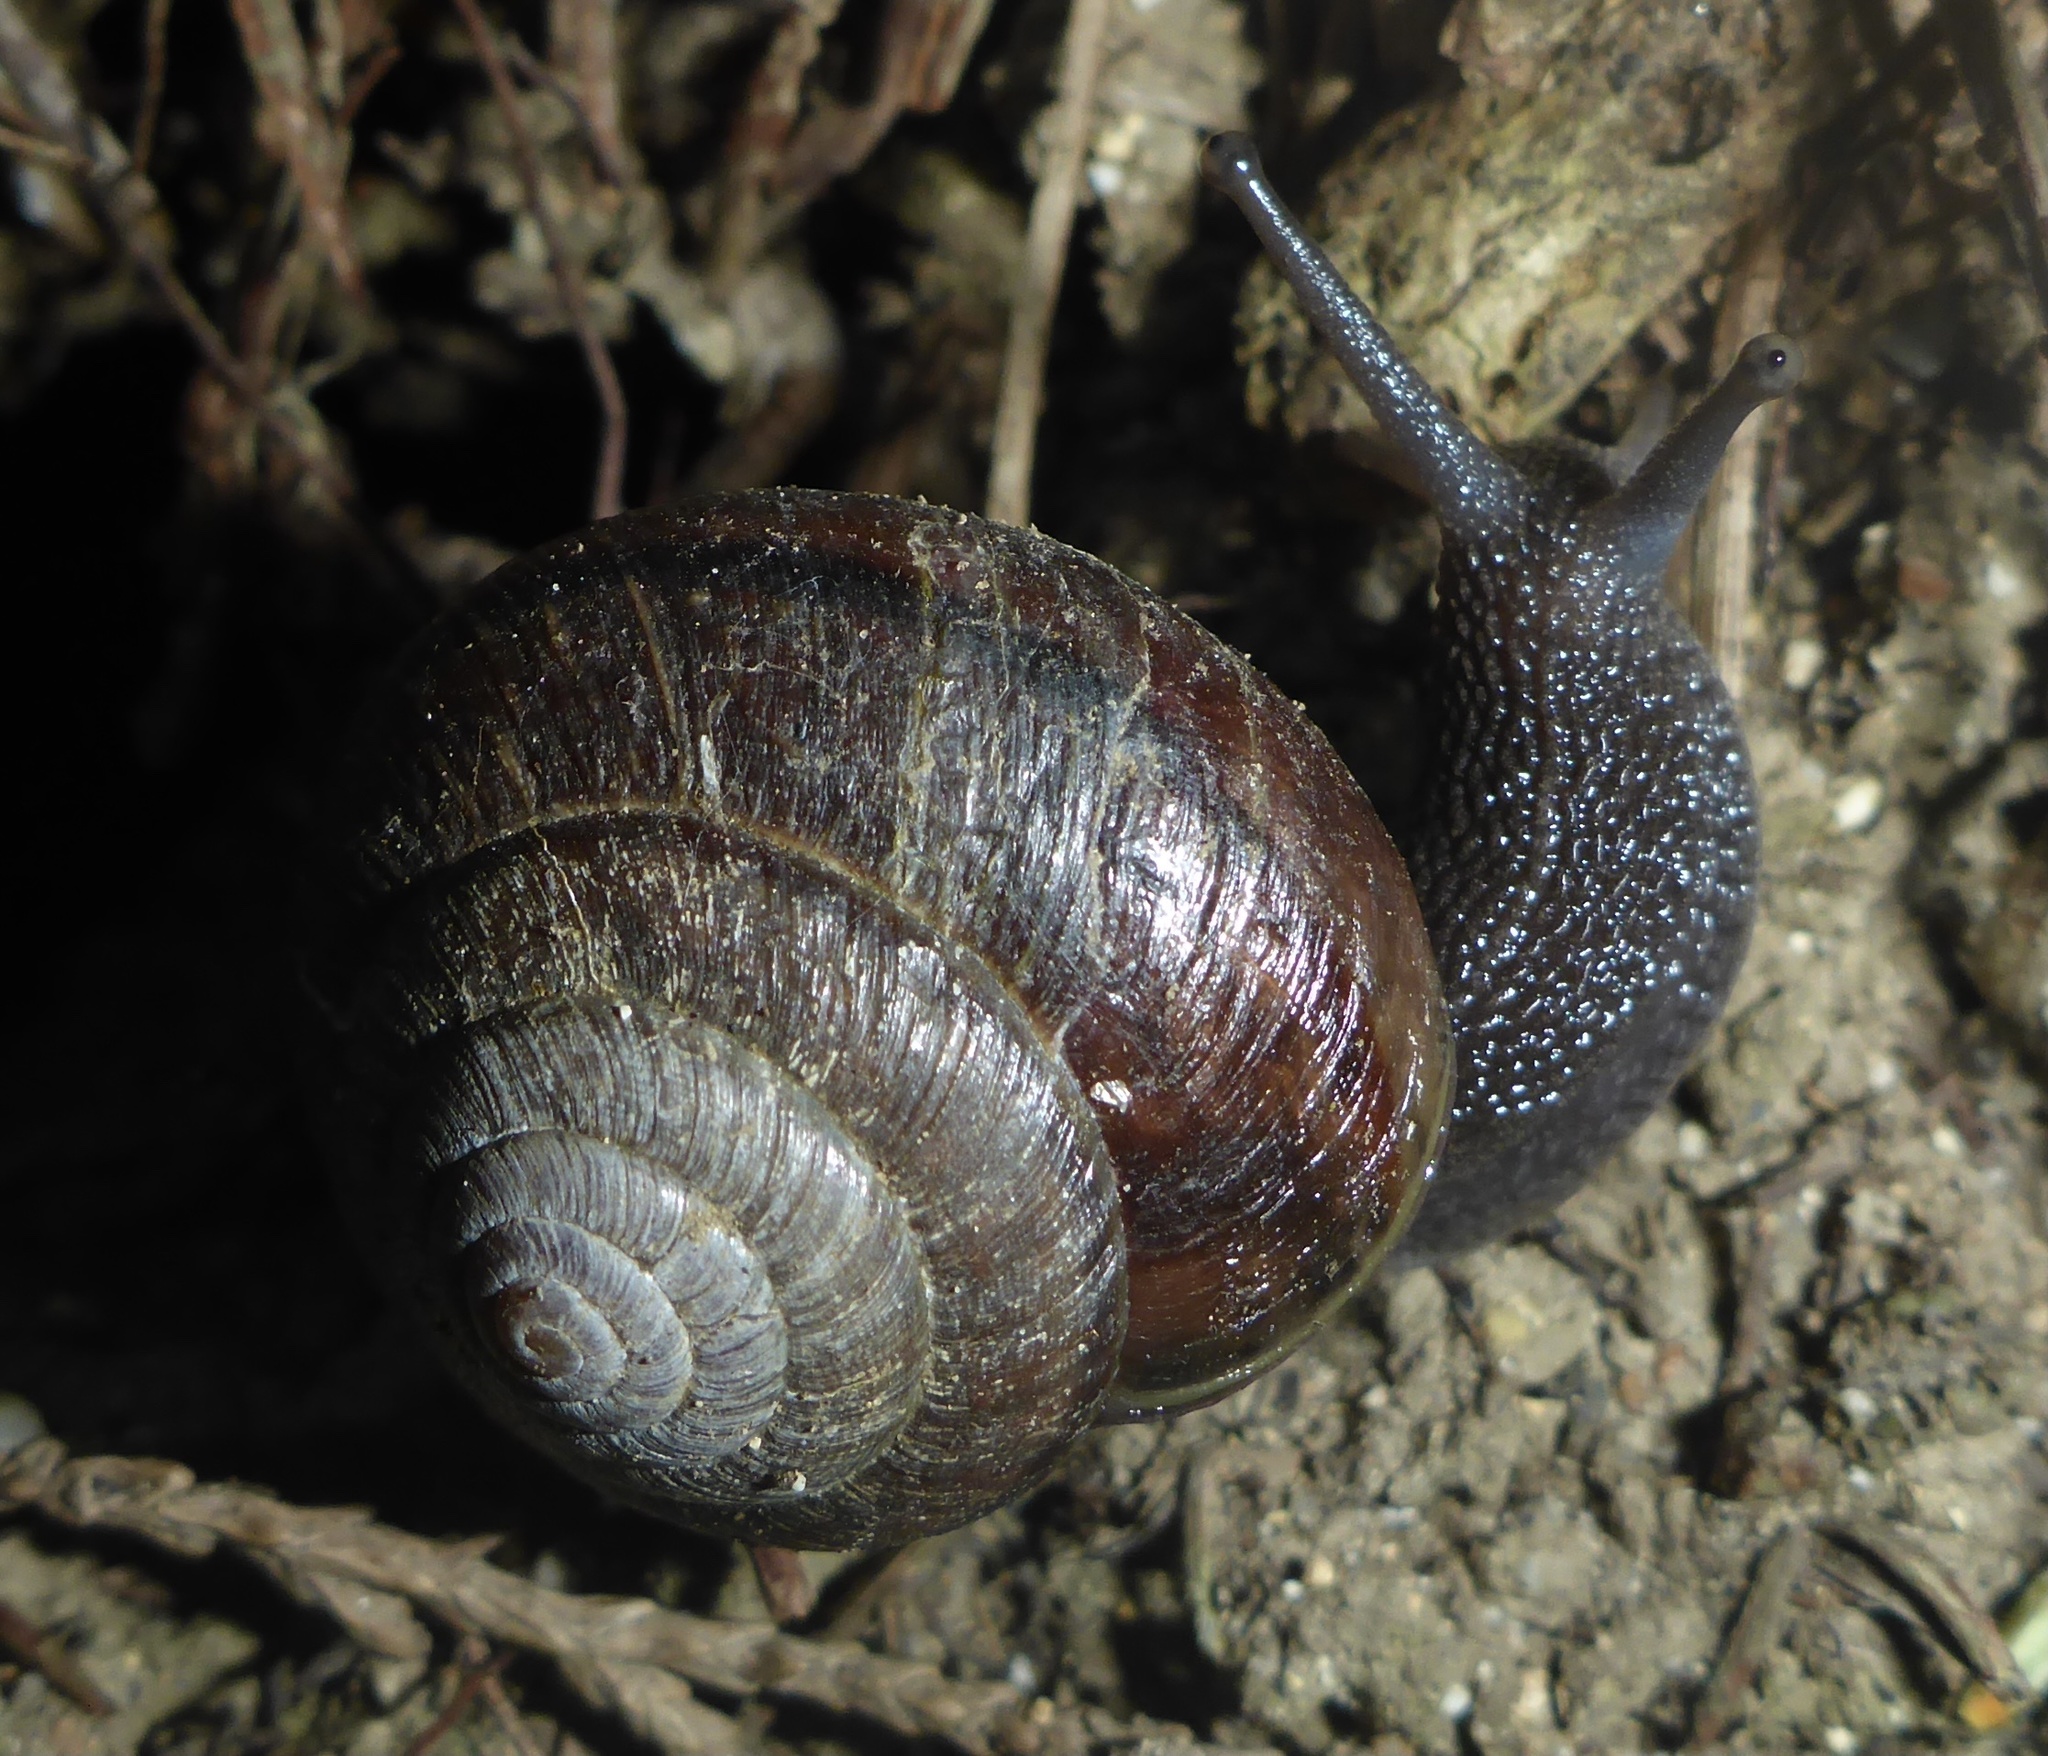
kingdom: Animalia
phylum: Mollusca
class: Gastropoda
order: Stylommatophora
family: Xanthonychidae
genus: Helminthoglypta
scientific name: Helminthoglypta arrosa
